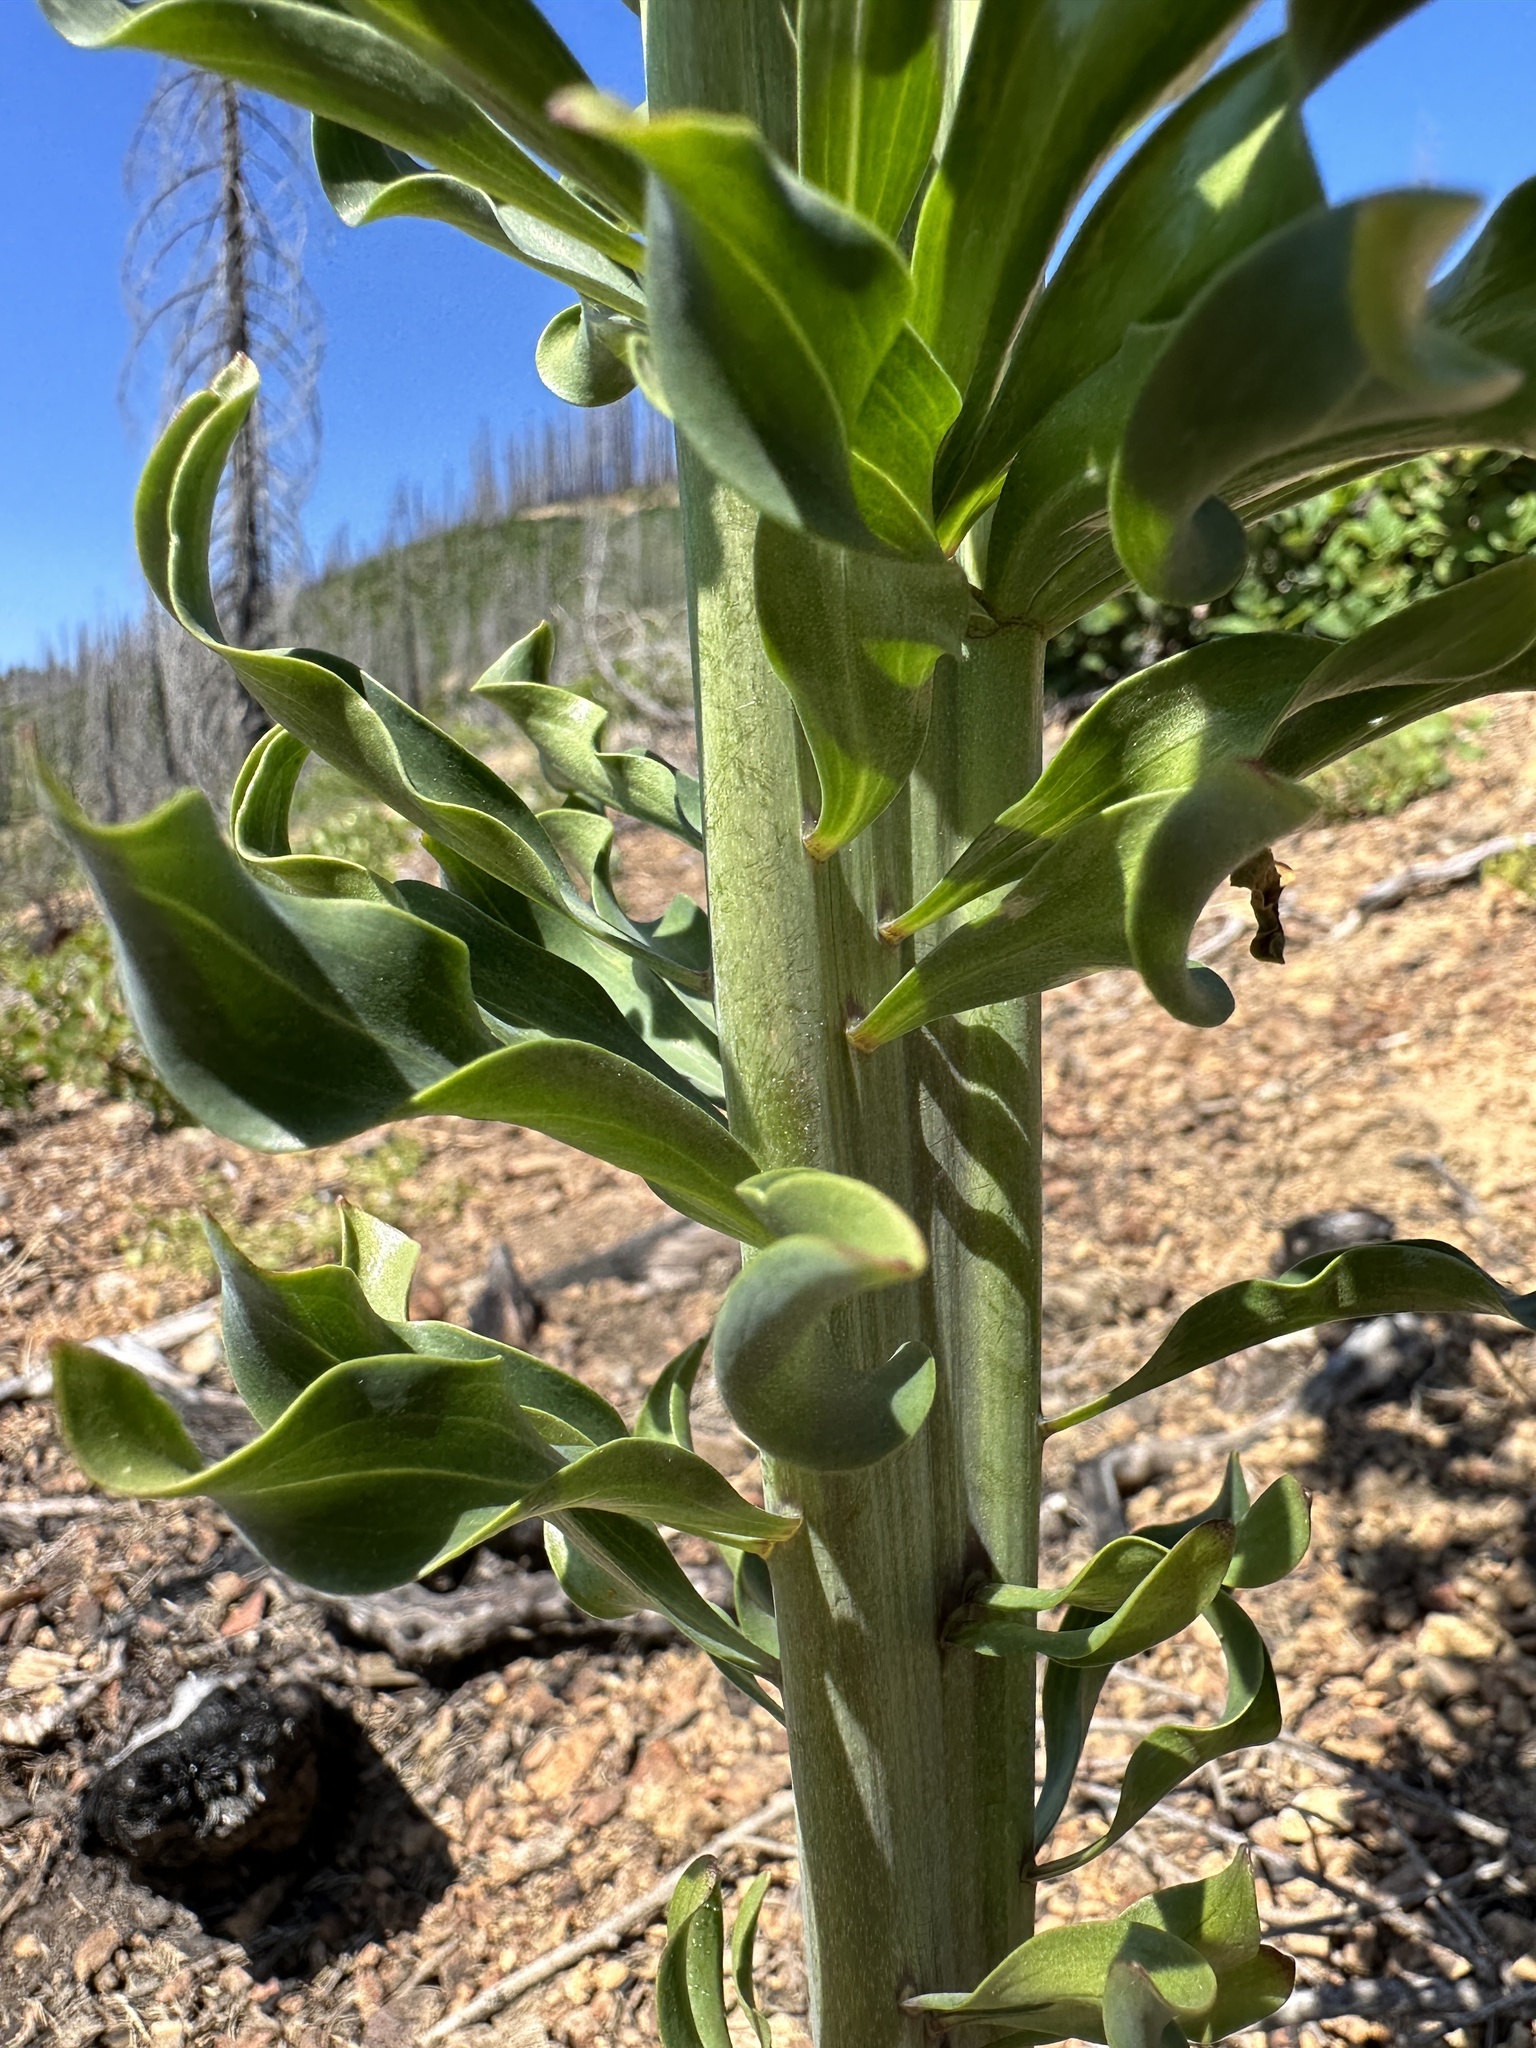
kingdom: Plantae
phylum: Tracheophyta
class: Liliopsida
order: Liliales
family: Liliaceae
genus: Lilium
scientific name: Lilium washingtonianum
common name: Washington lily
